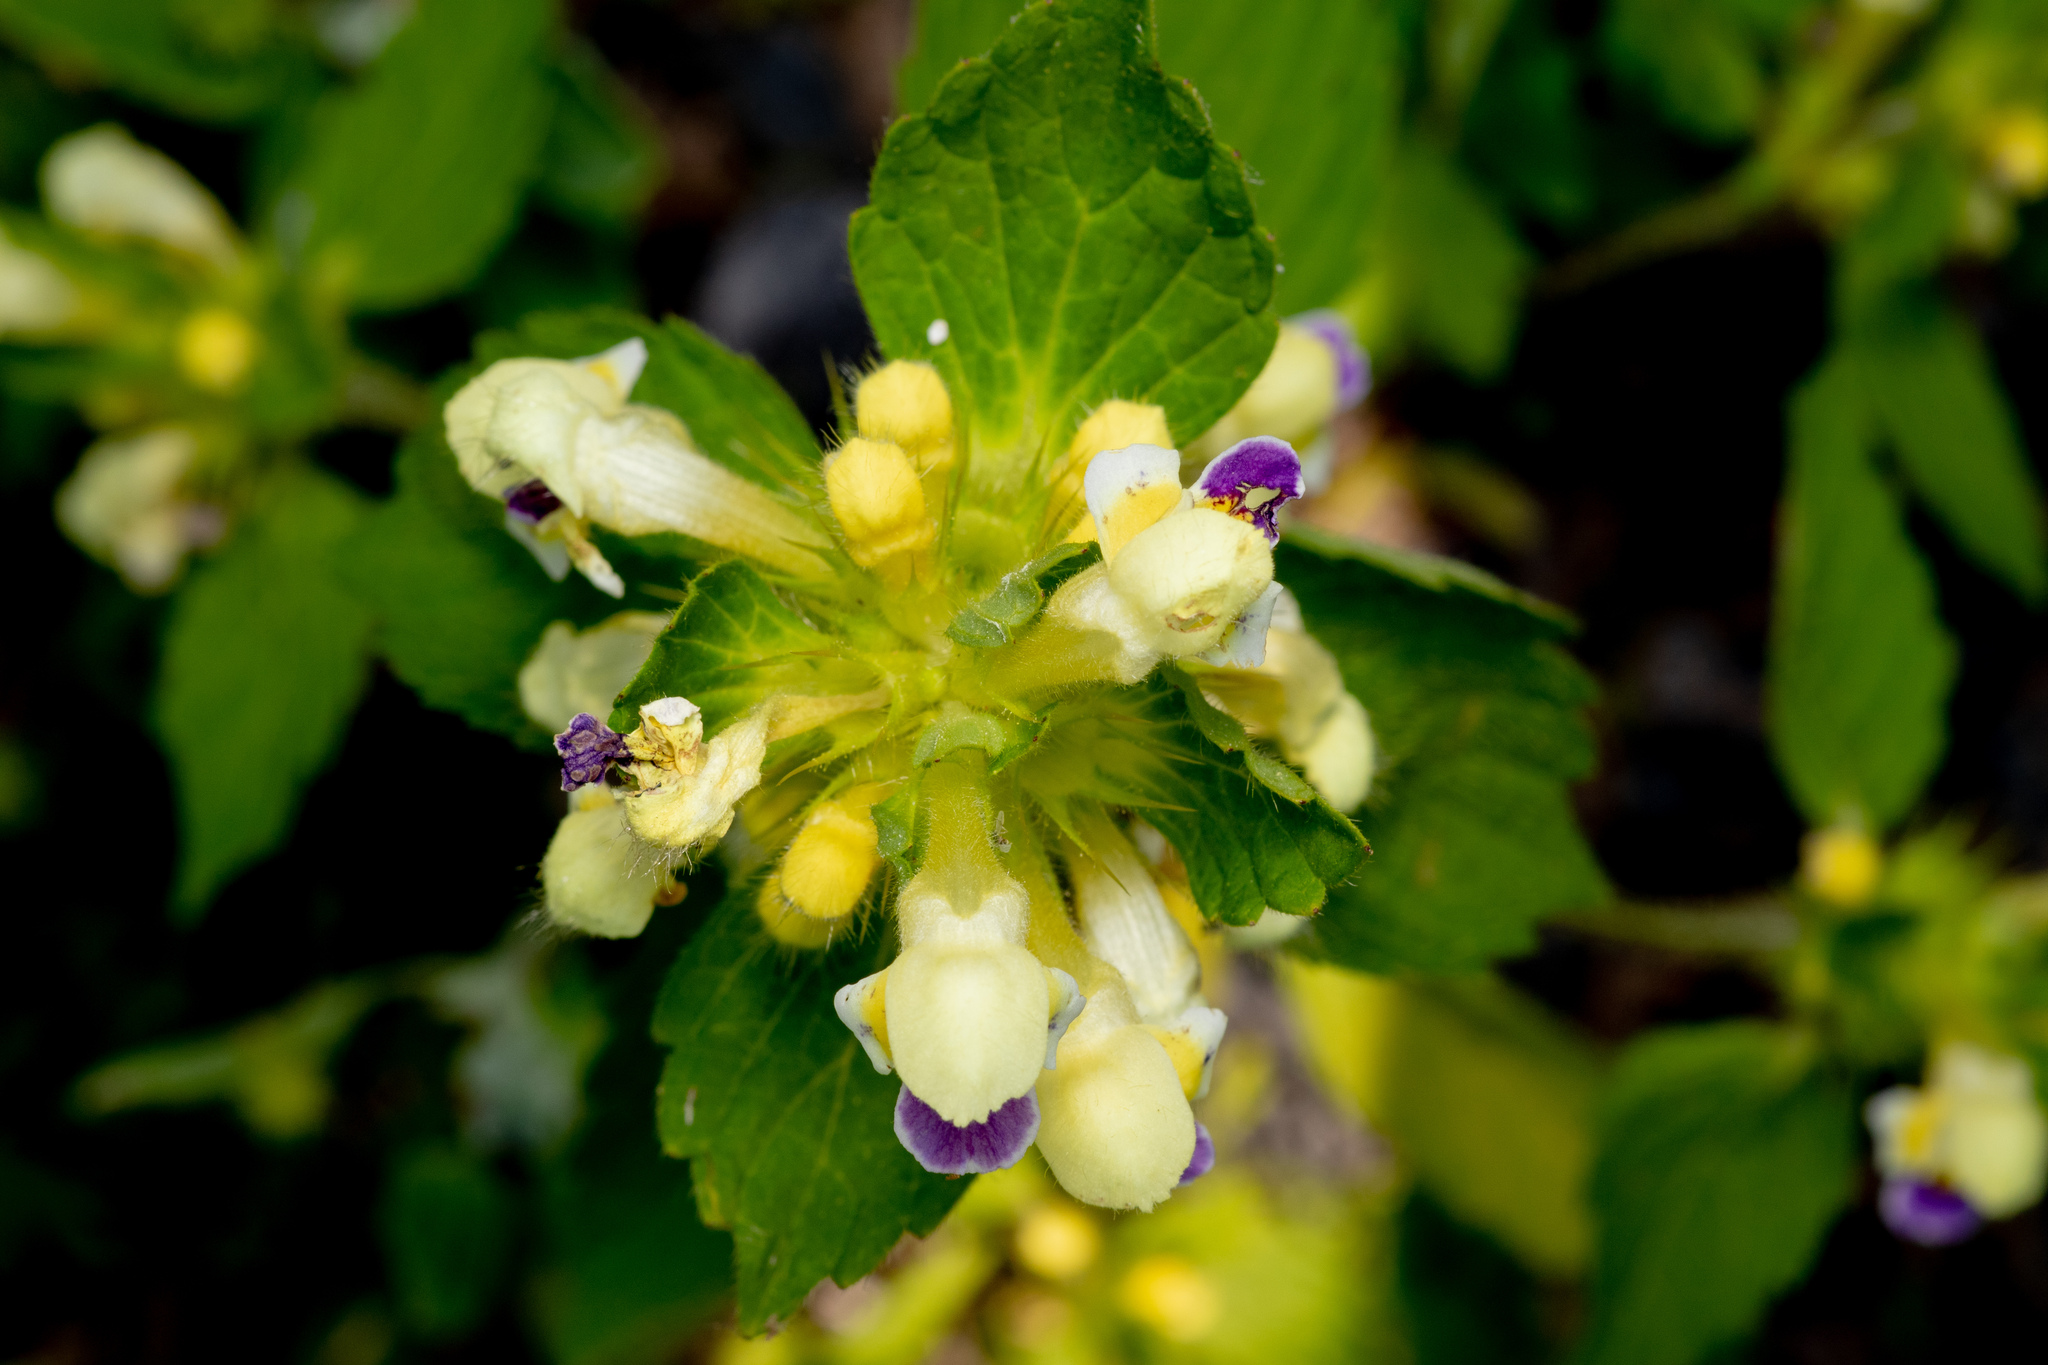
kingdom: Plantae
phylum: Tracheophyta
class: Magnoliopsida
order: Lamiales
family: Lamiaceae
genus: Galeopsis
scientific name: Galeopsis speciosa
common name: Large-flowered hemp-nettle
